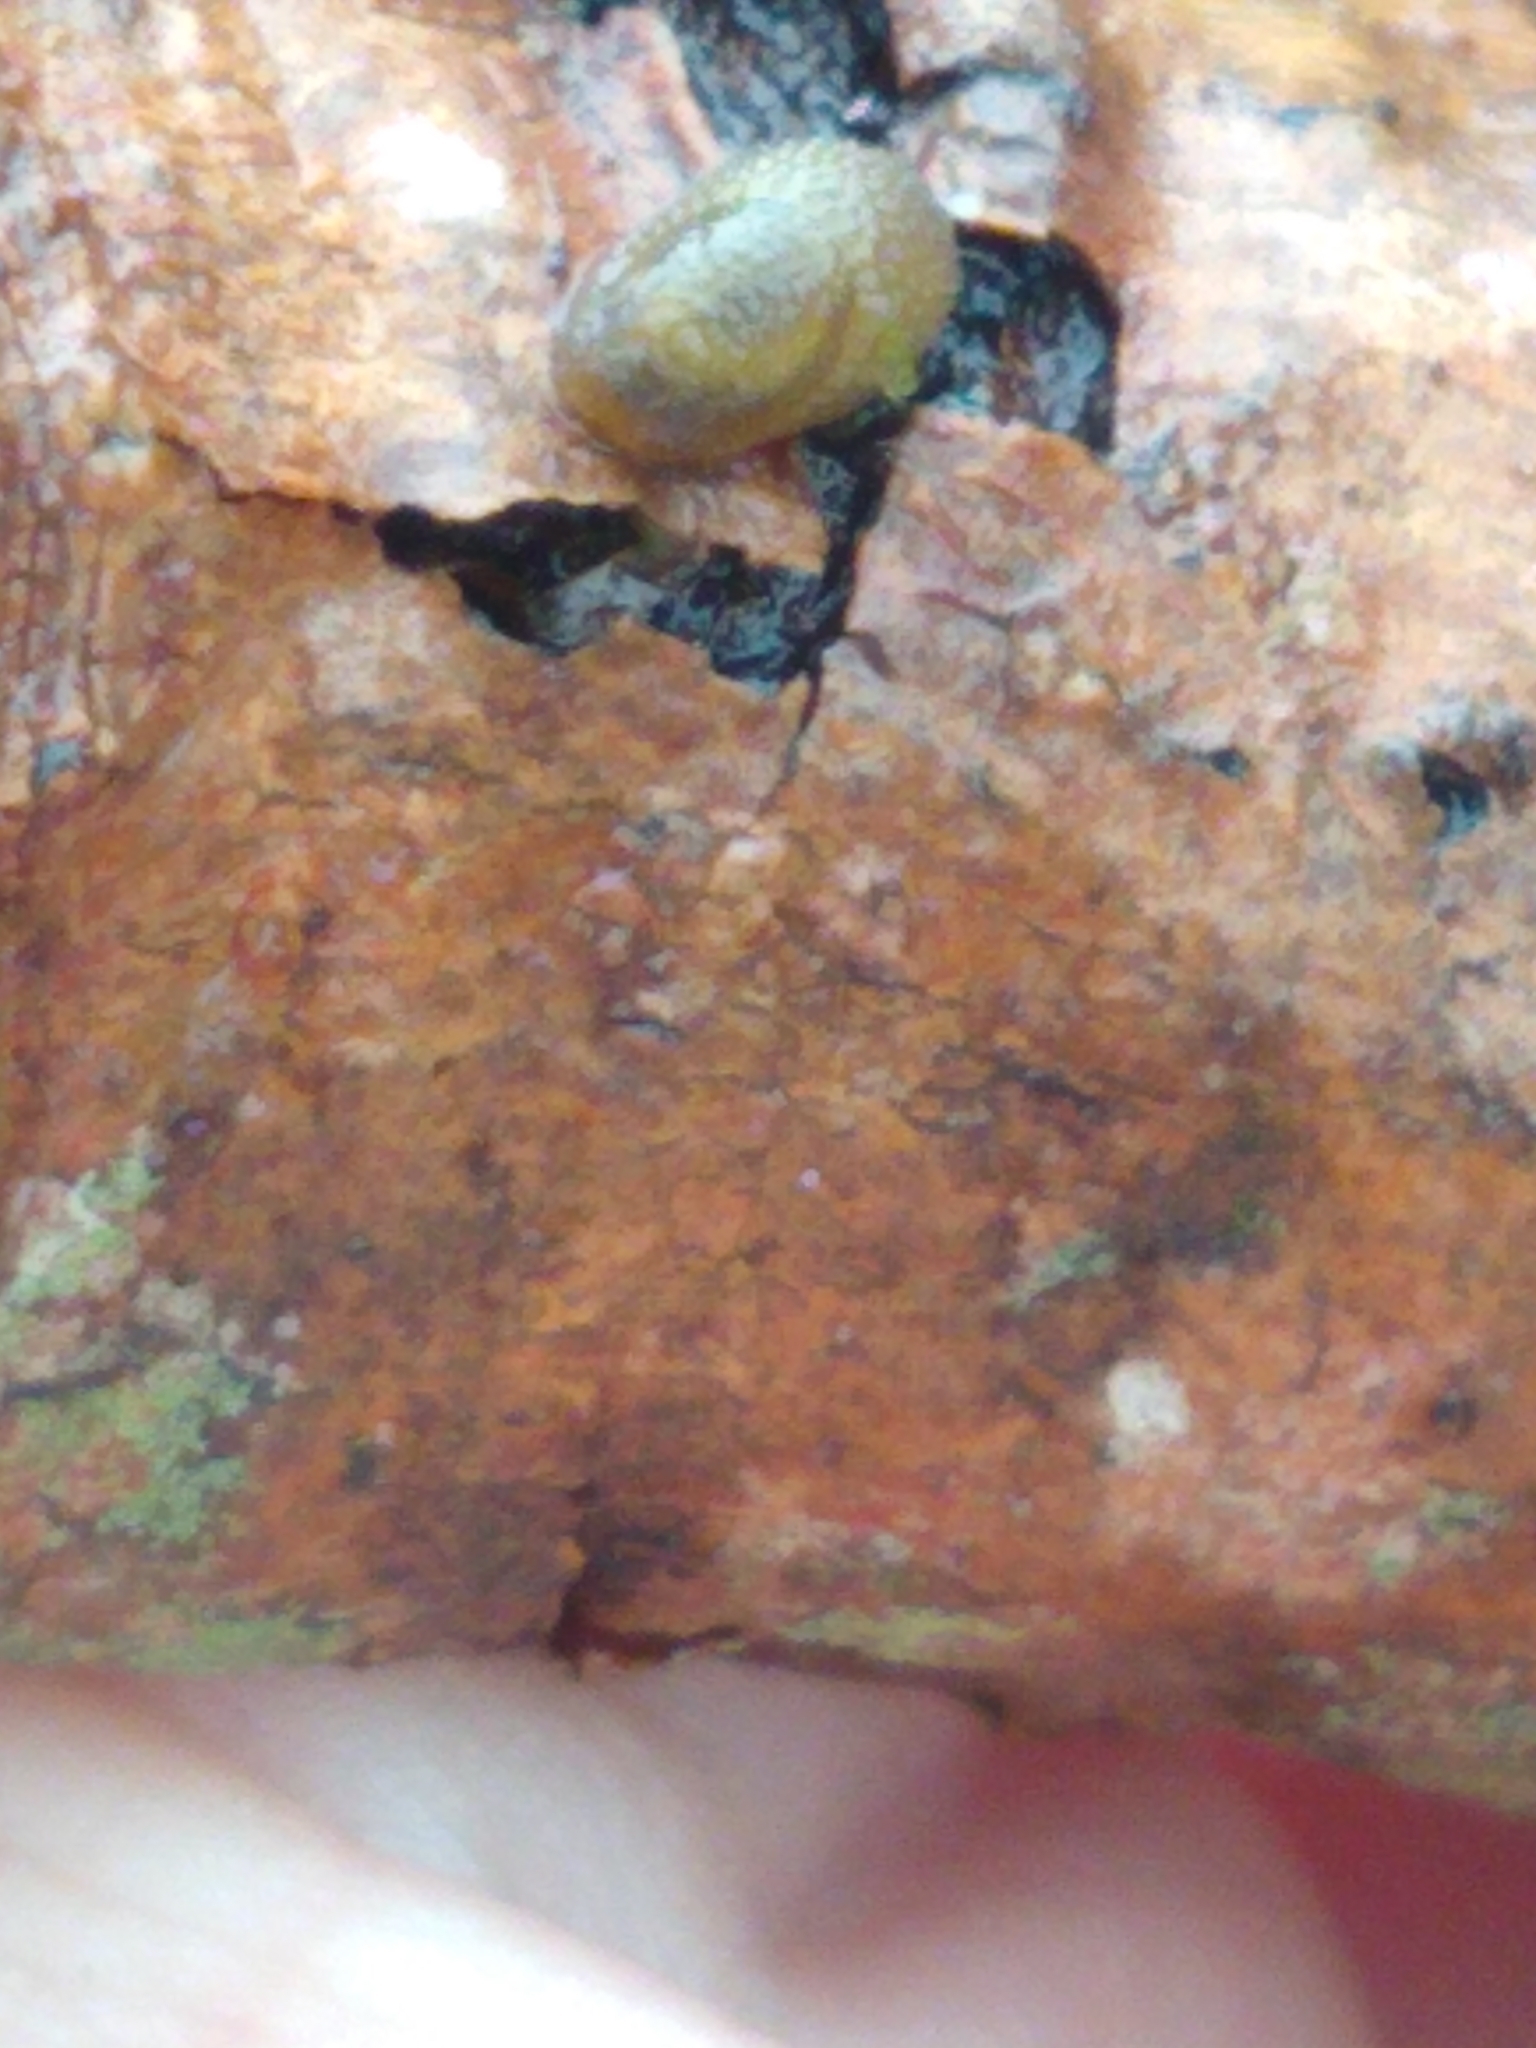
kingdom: Animalia
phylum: Mollusca
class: Gastropoda
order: Stylommatophora
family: Arionidae
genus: Arion
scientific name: Arion intermedius
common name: Hedgehog slug
